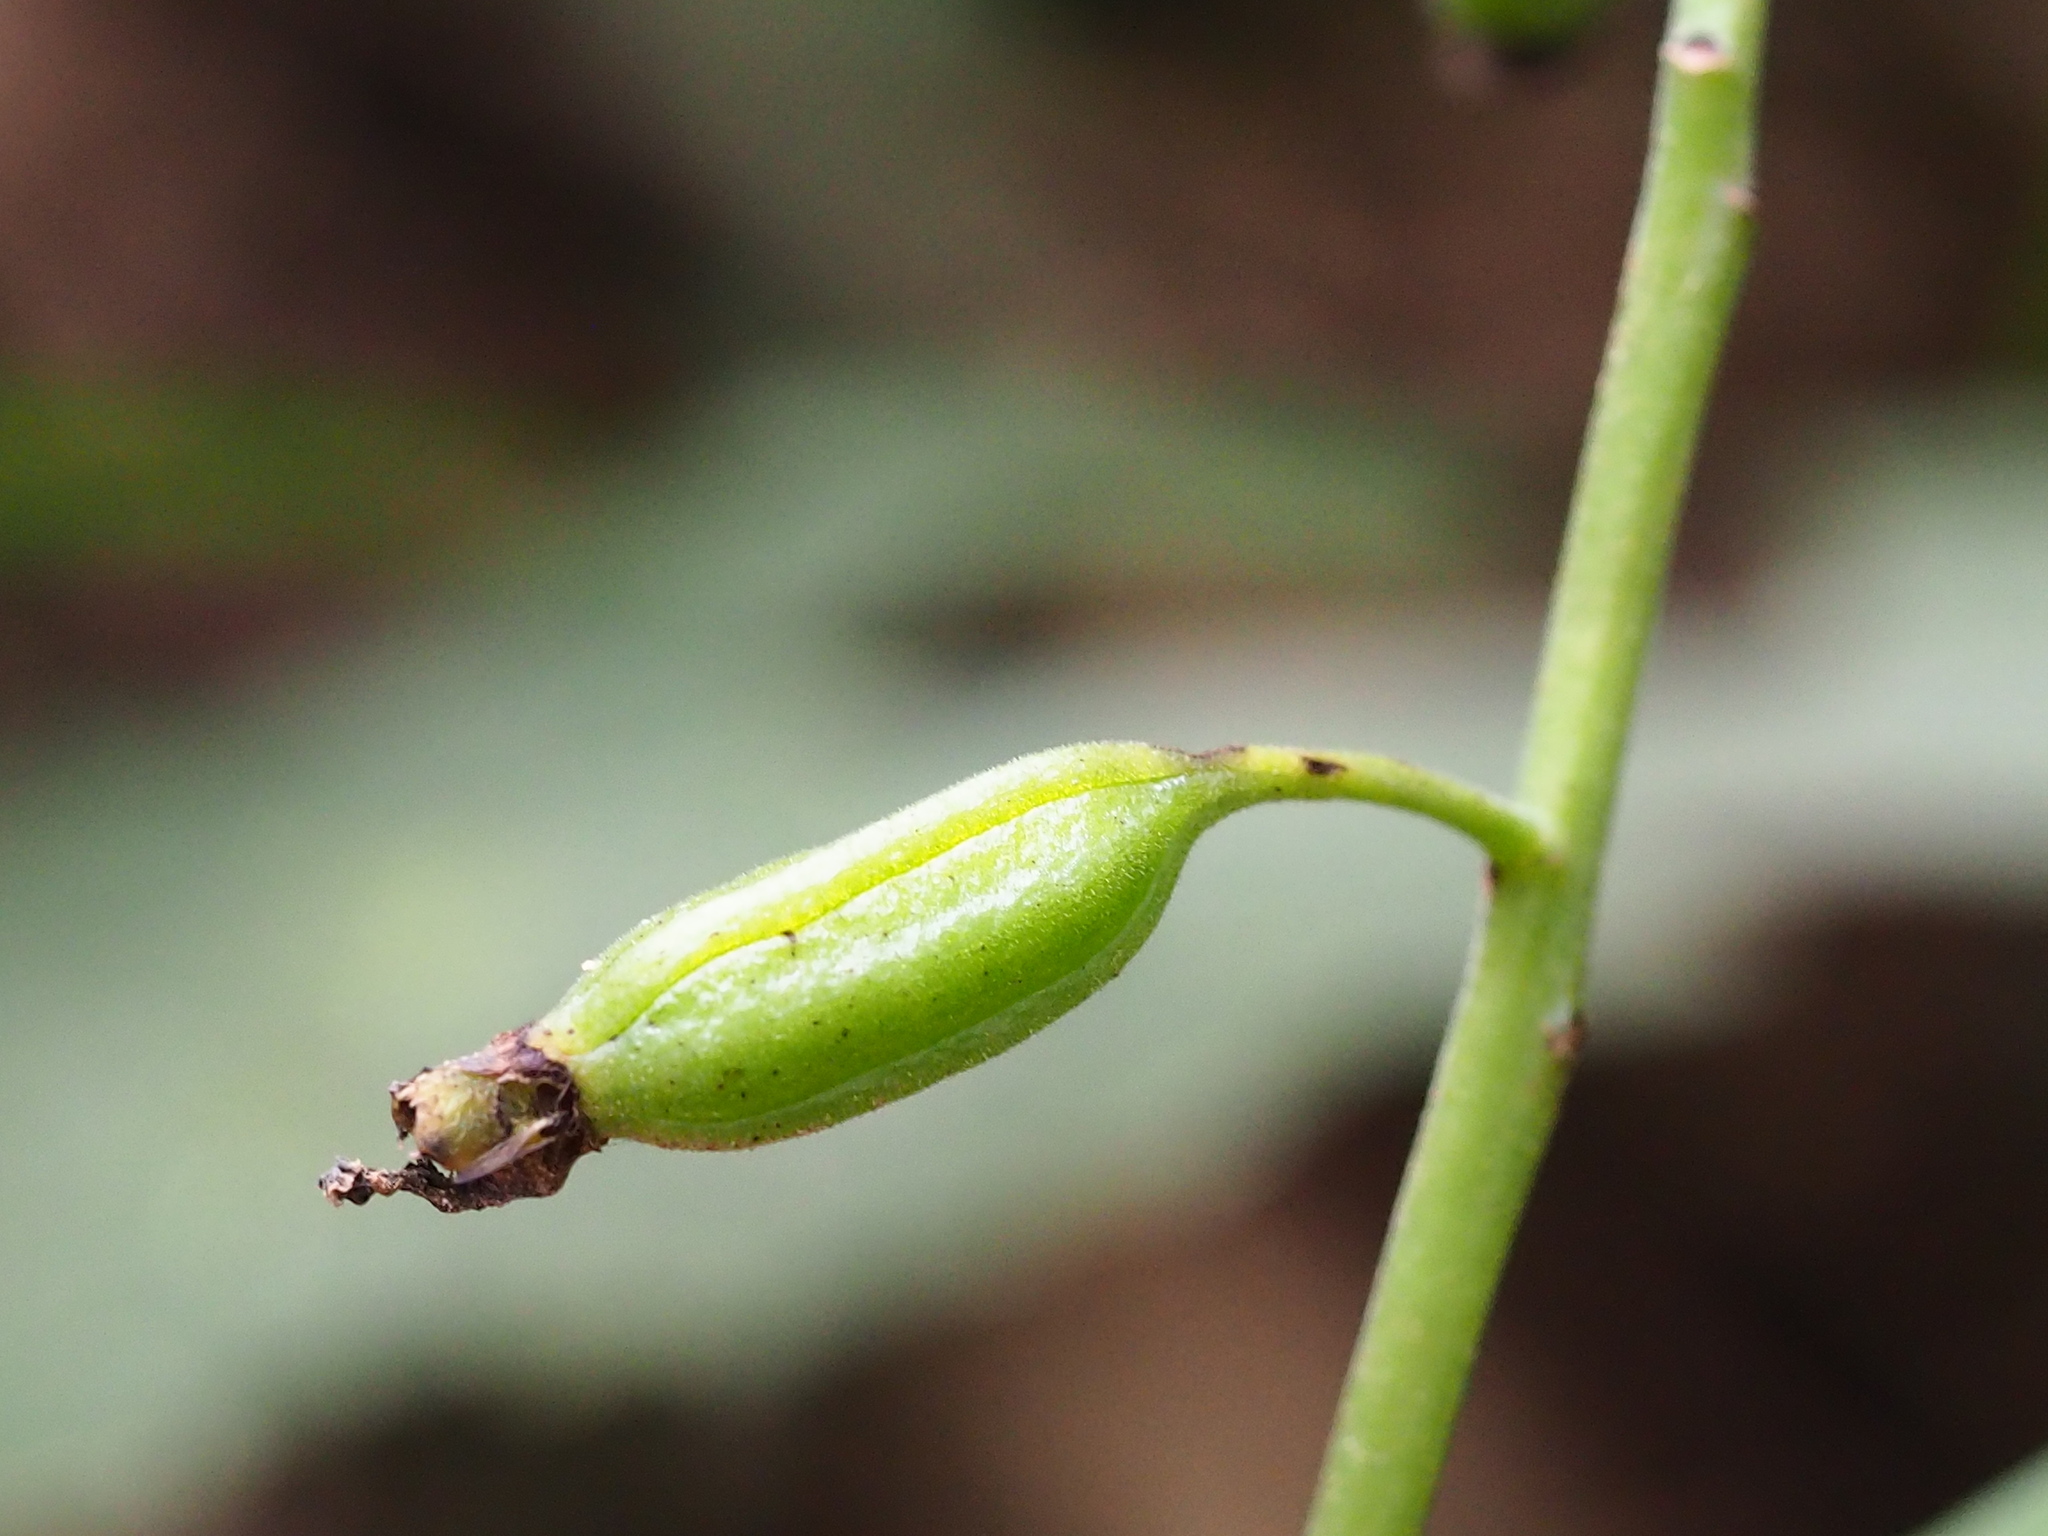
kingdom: Plantae
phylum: Tracheophyta
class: Liliopsida
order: Asparagales
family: Orchidaceae
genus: Calanthe
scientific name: Calanthe obcordata
